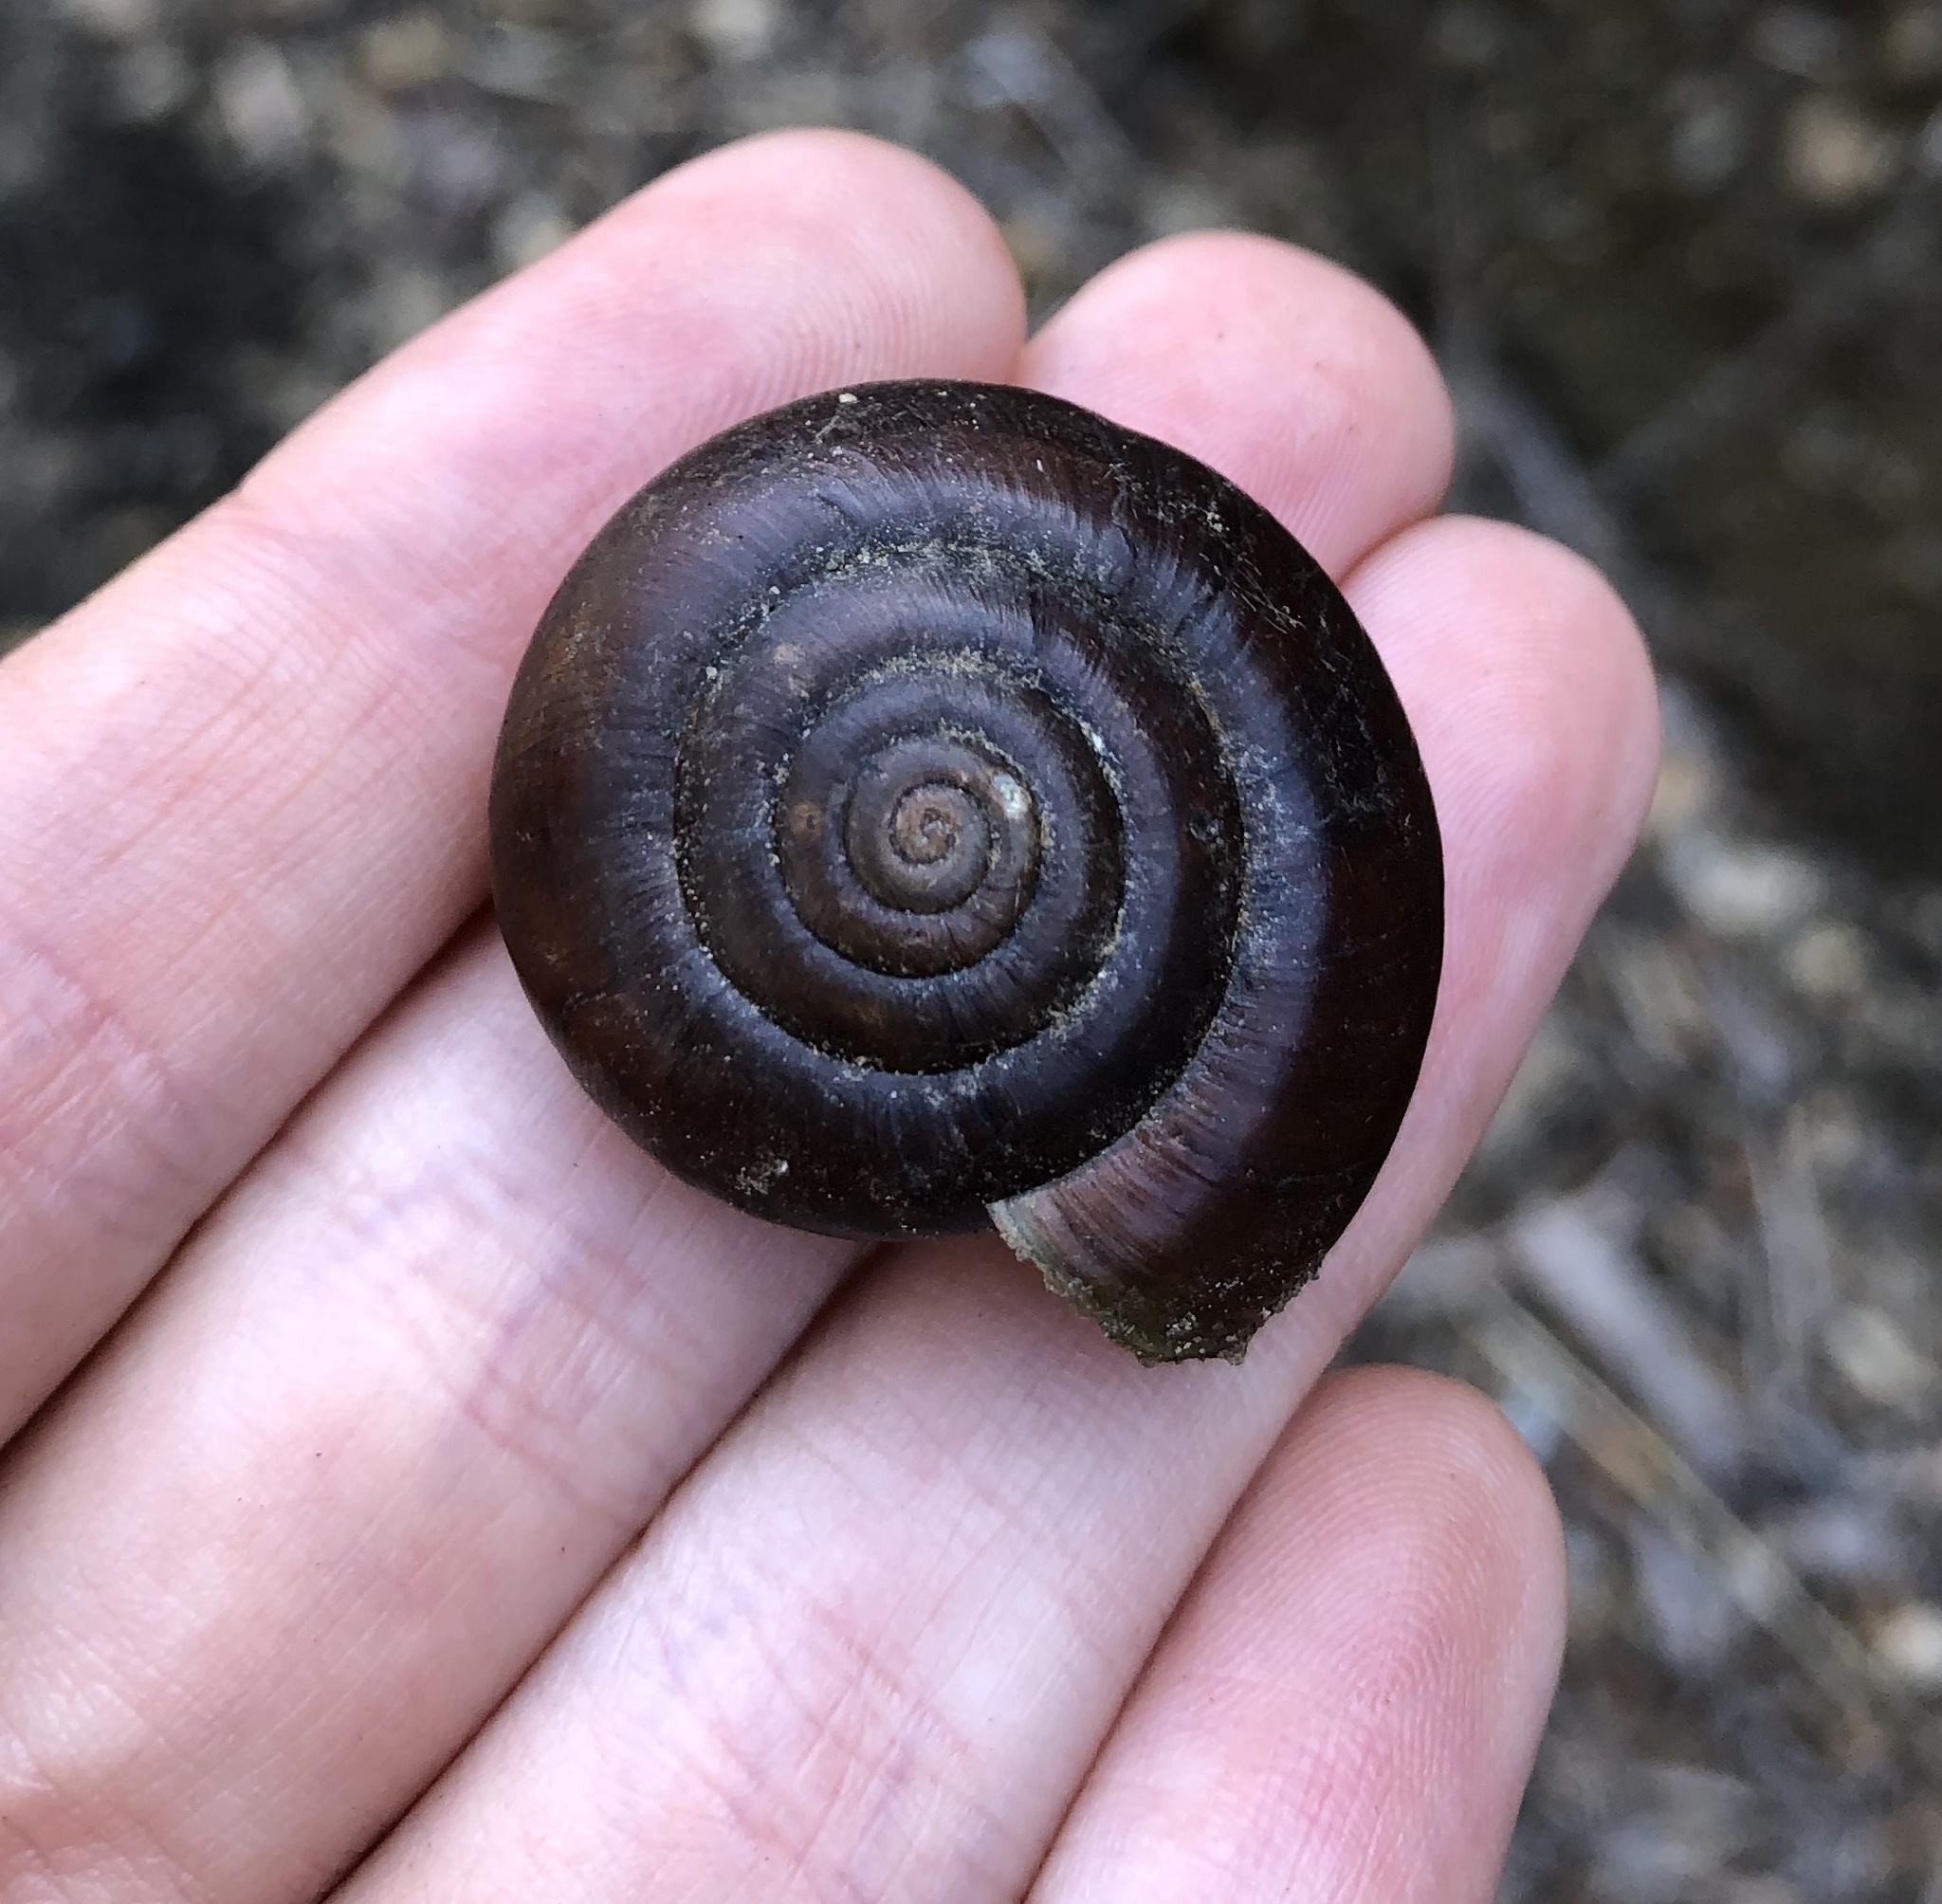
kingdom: Animalia
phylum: Mollusca
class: Gastropoda
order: Stylommatophora
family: Megomphicidae
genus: Glyptostoma
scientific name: Glyptostoma newberryanum
